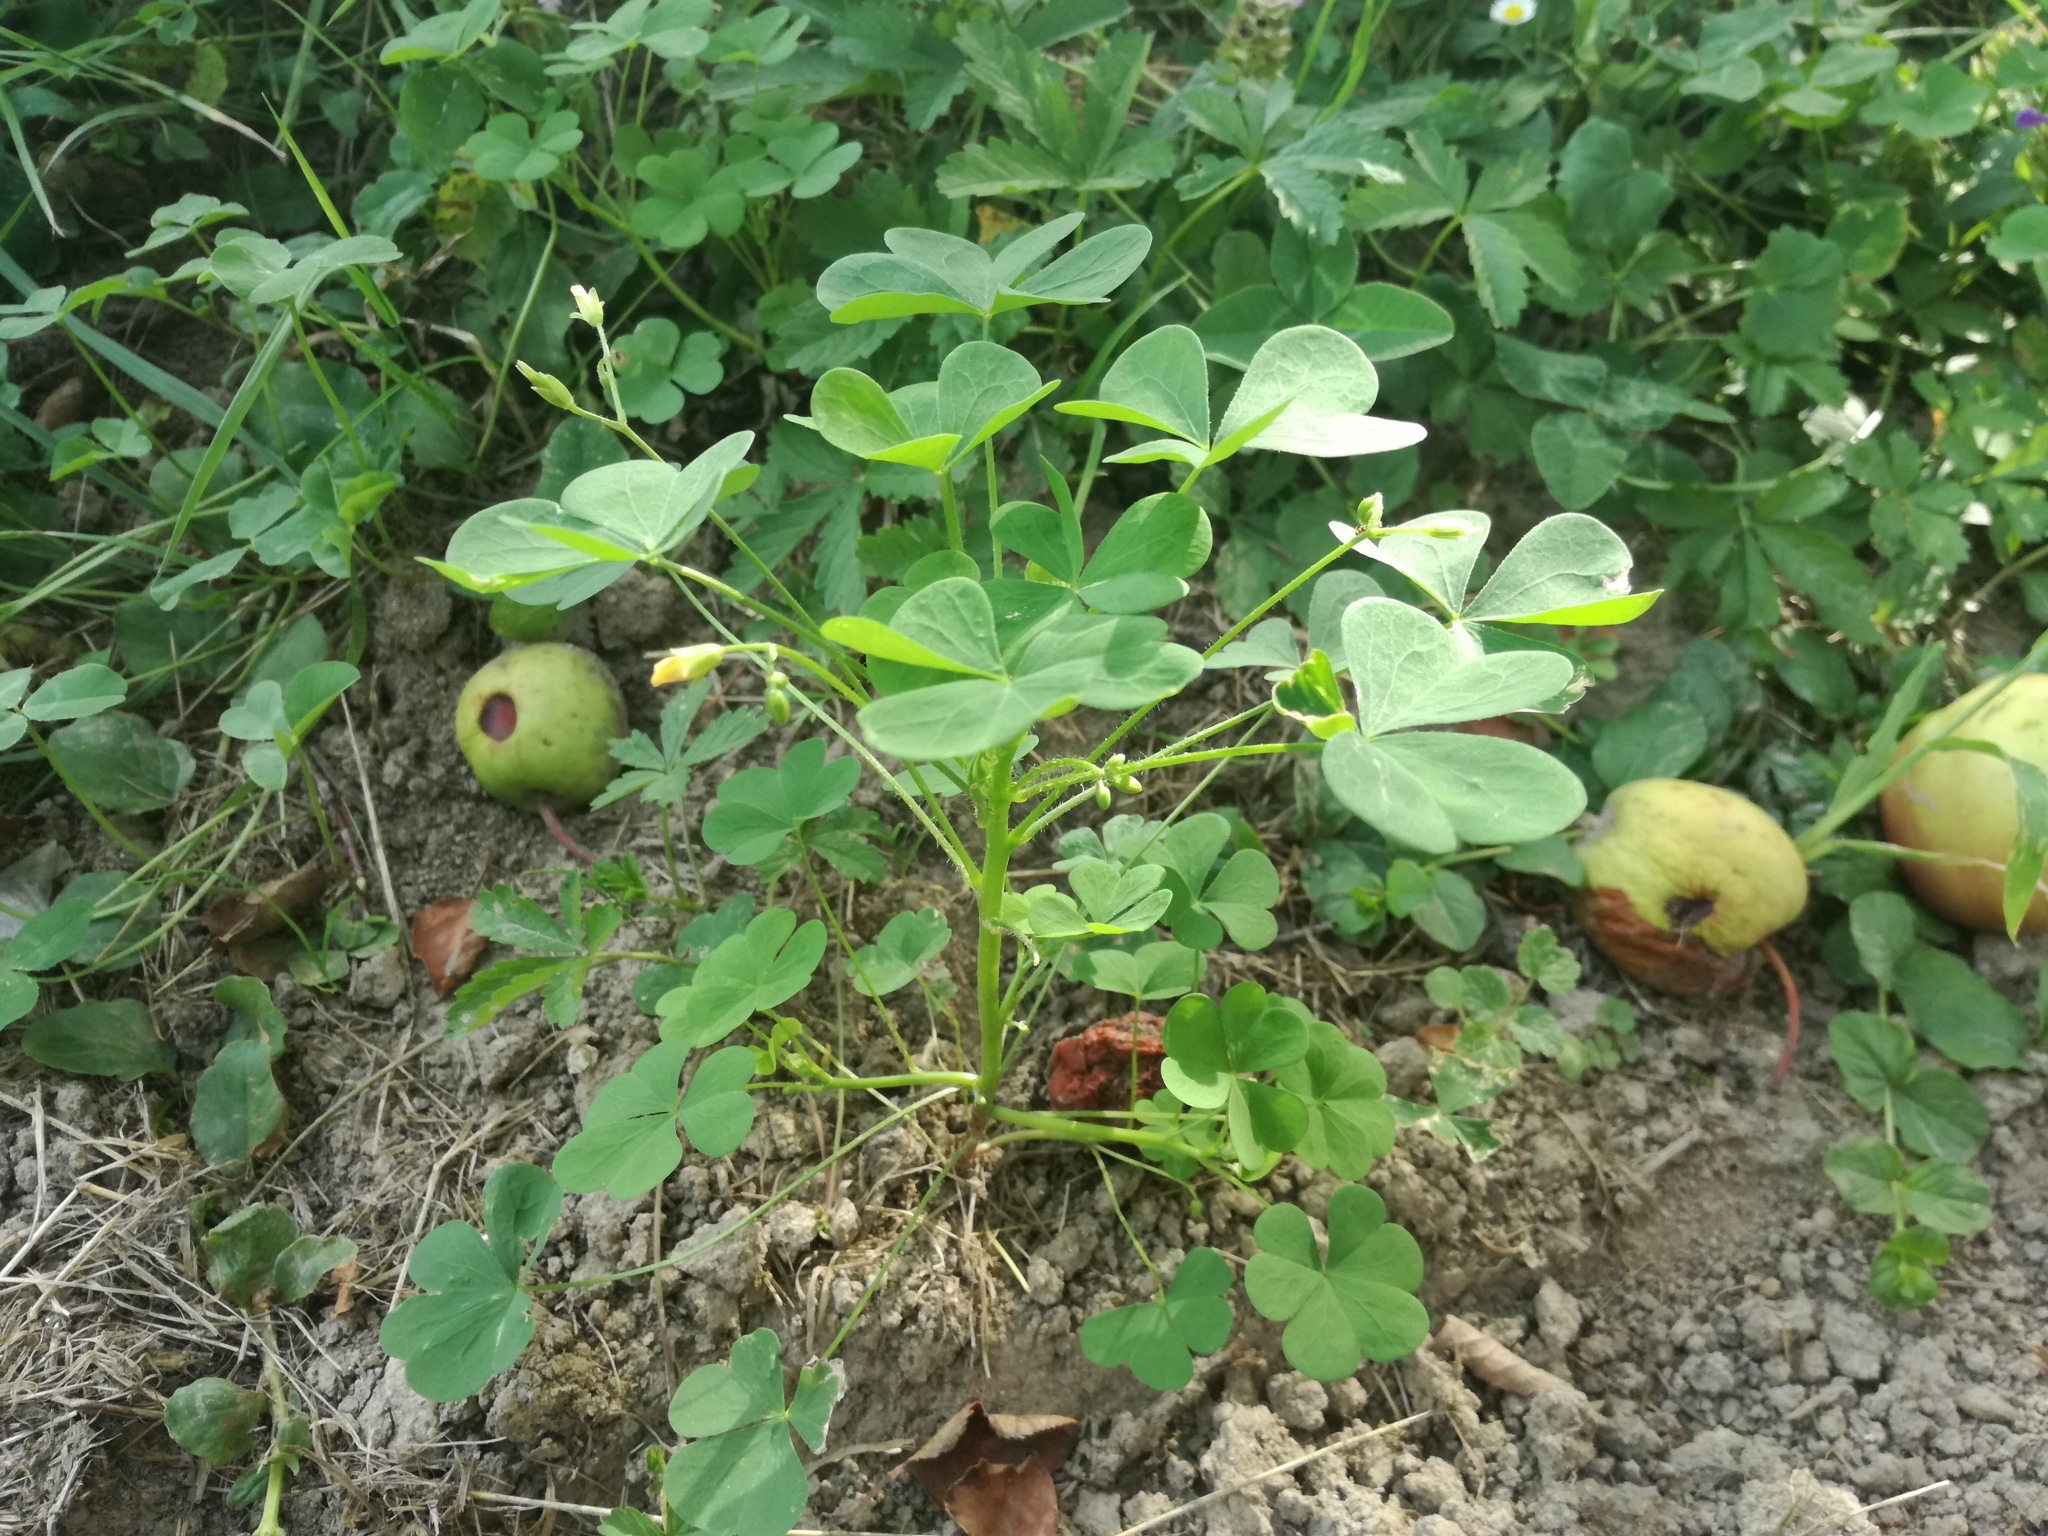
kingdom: Plantae
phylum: Tracheophyta
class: Magnoliopsida
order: Oxalidales
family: Oxalidaceae
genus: Oxalis
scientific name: Oxalis stricta
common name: Upright yellow-sorrel
